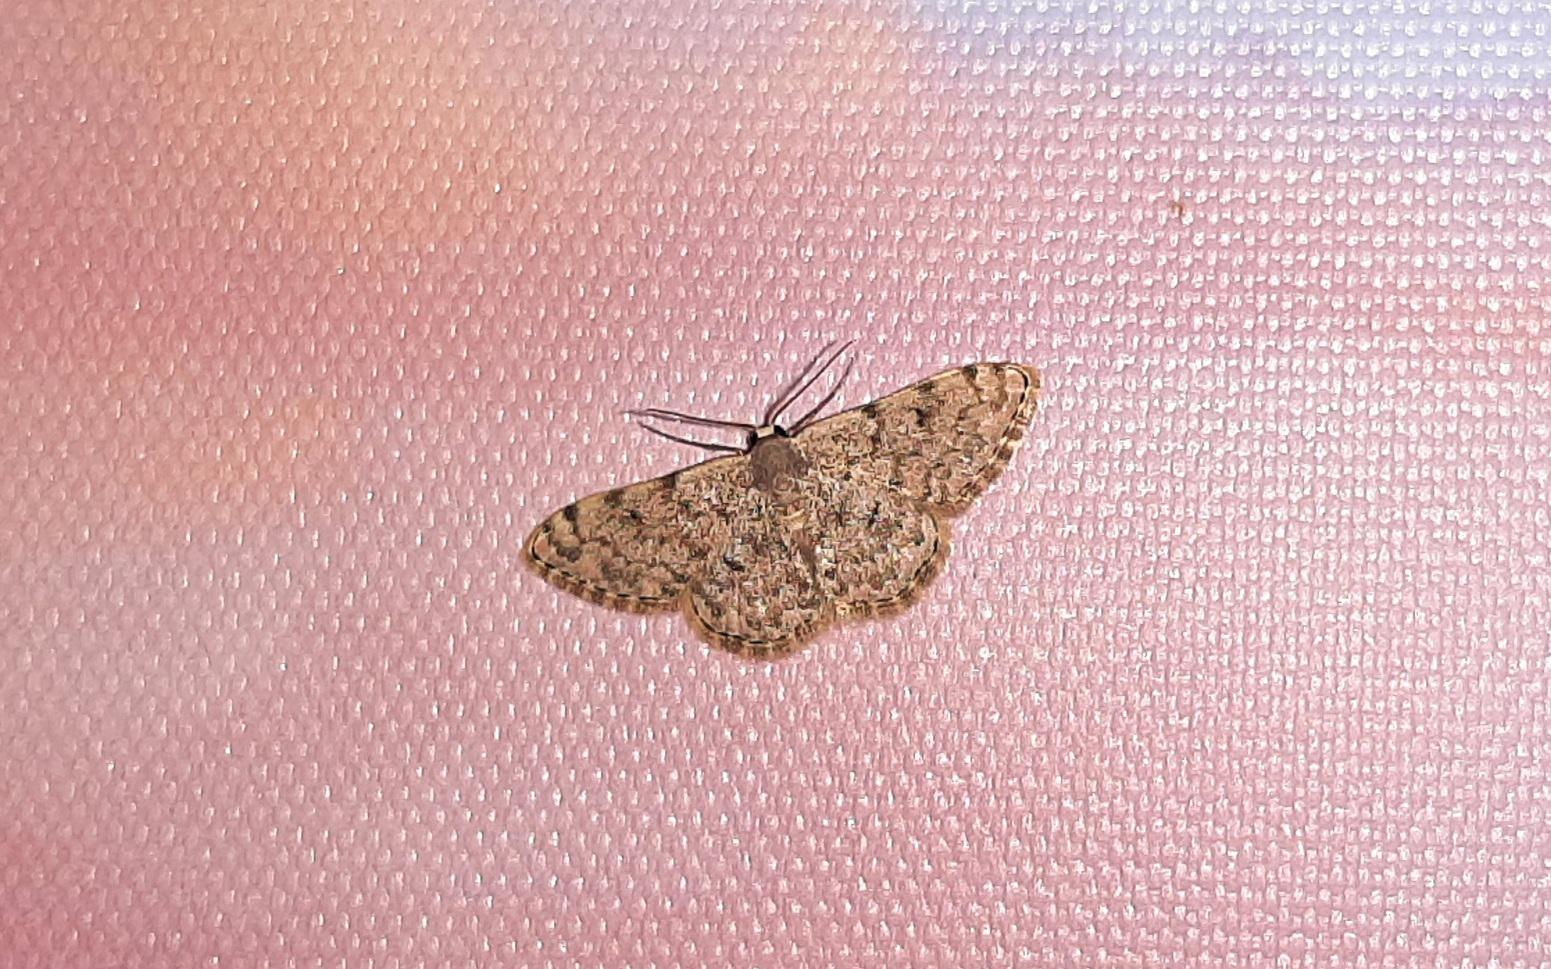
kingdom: Animalia
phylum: Arthropoda
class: Insecta
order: Lepidoptera
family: Geometridae
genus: Glossotrophia
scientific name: Glossotrophia asellaria
